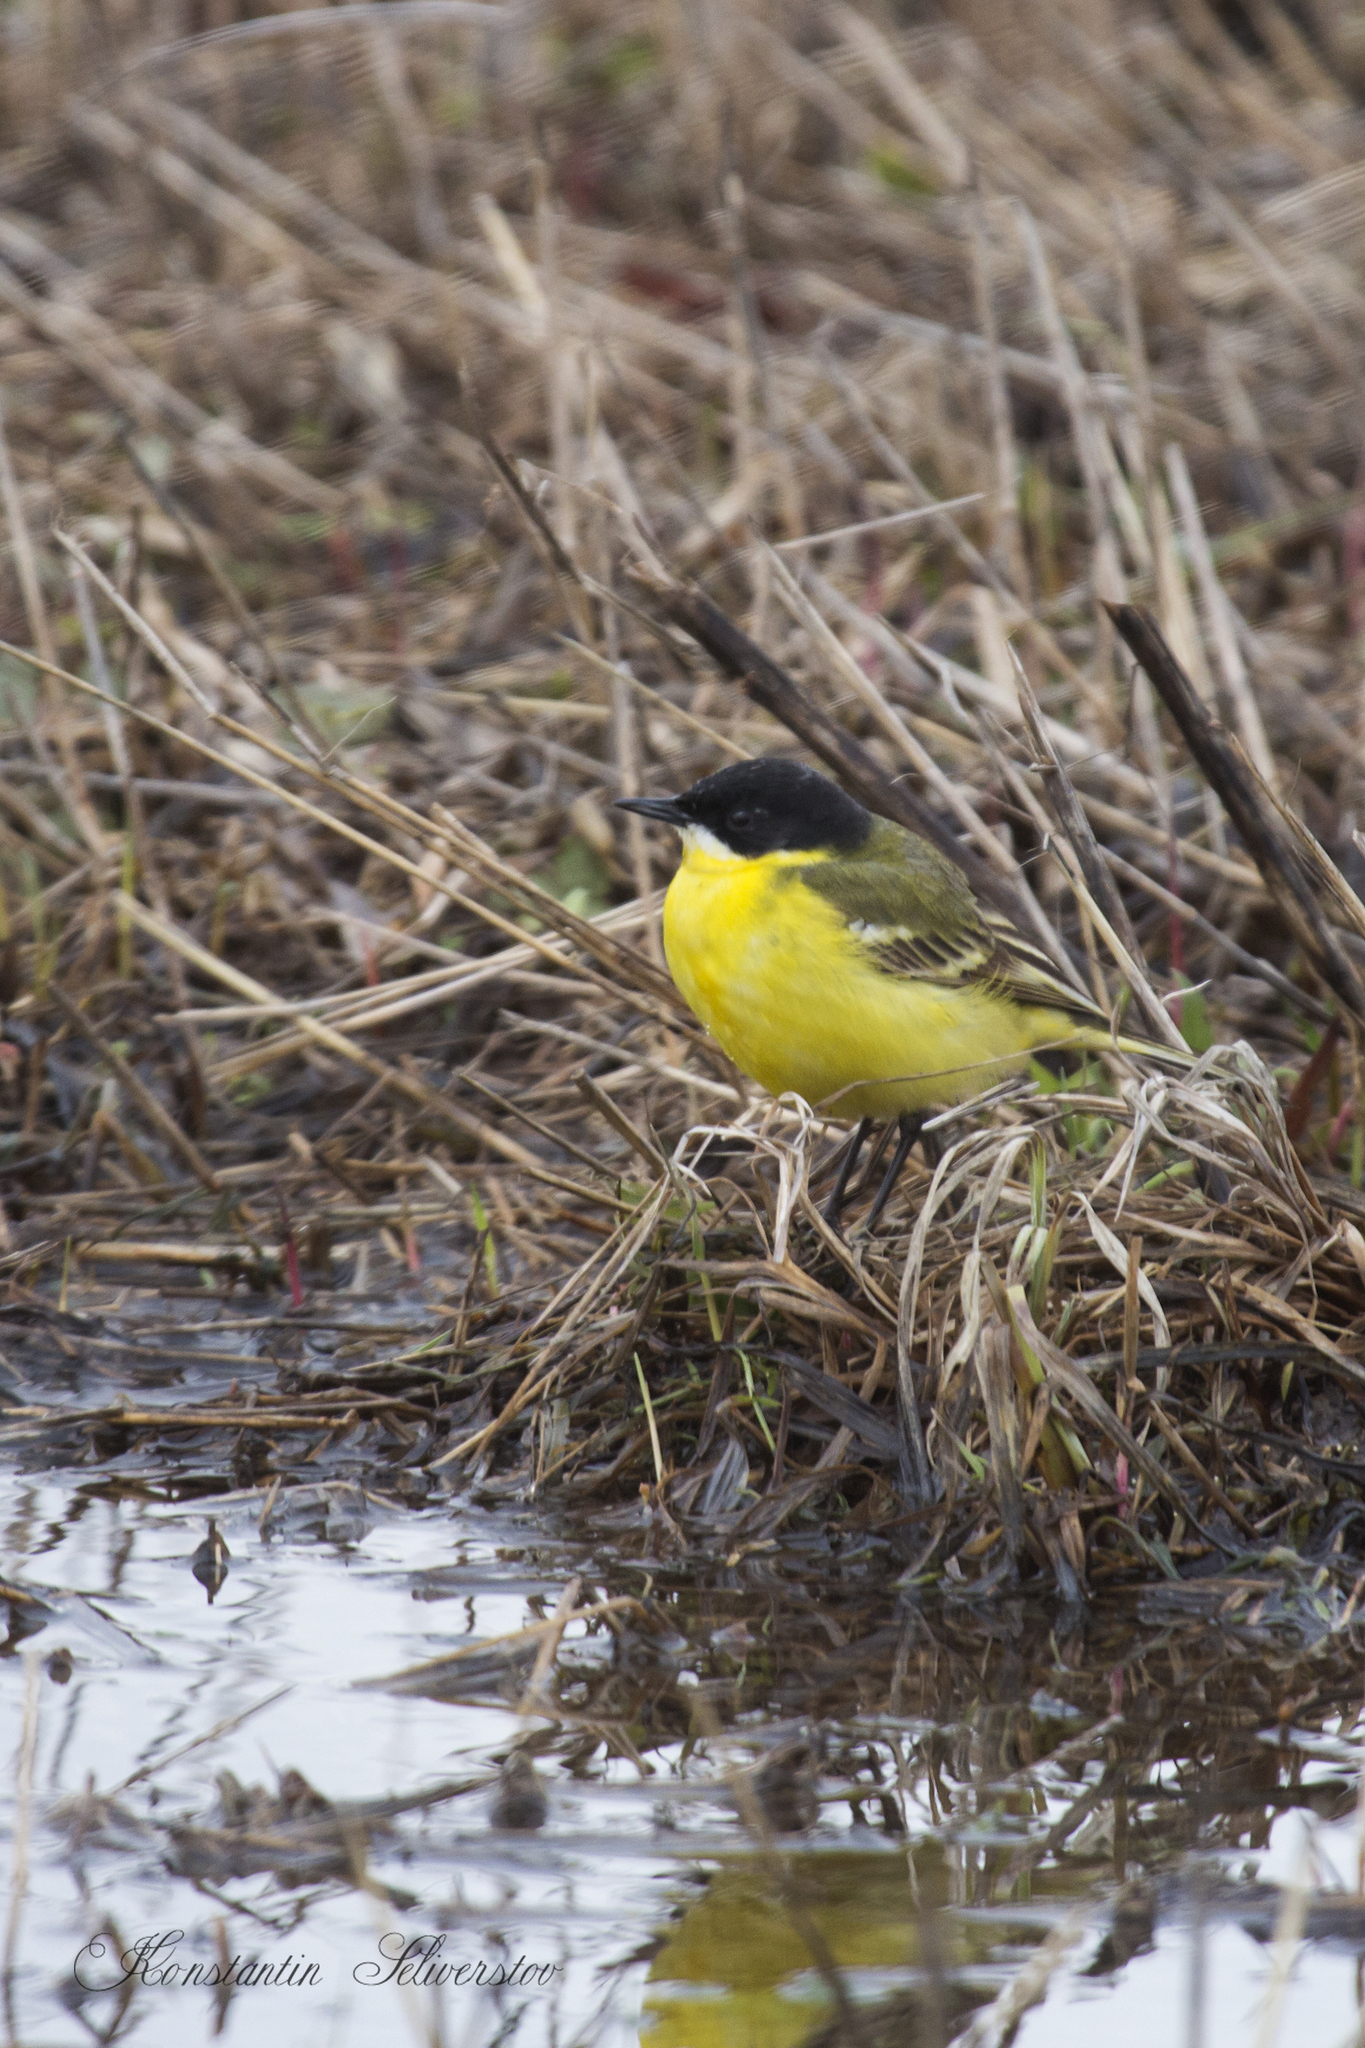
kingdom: Animalia
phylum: Chordata
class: Aves
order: Passeriformes
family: Motacillidae
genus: Motacilla
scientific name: Motacilla flava
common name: Western yellow wagtail
